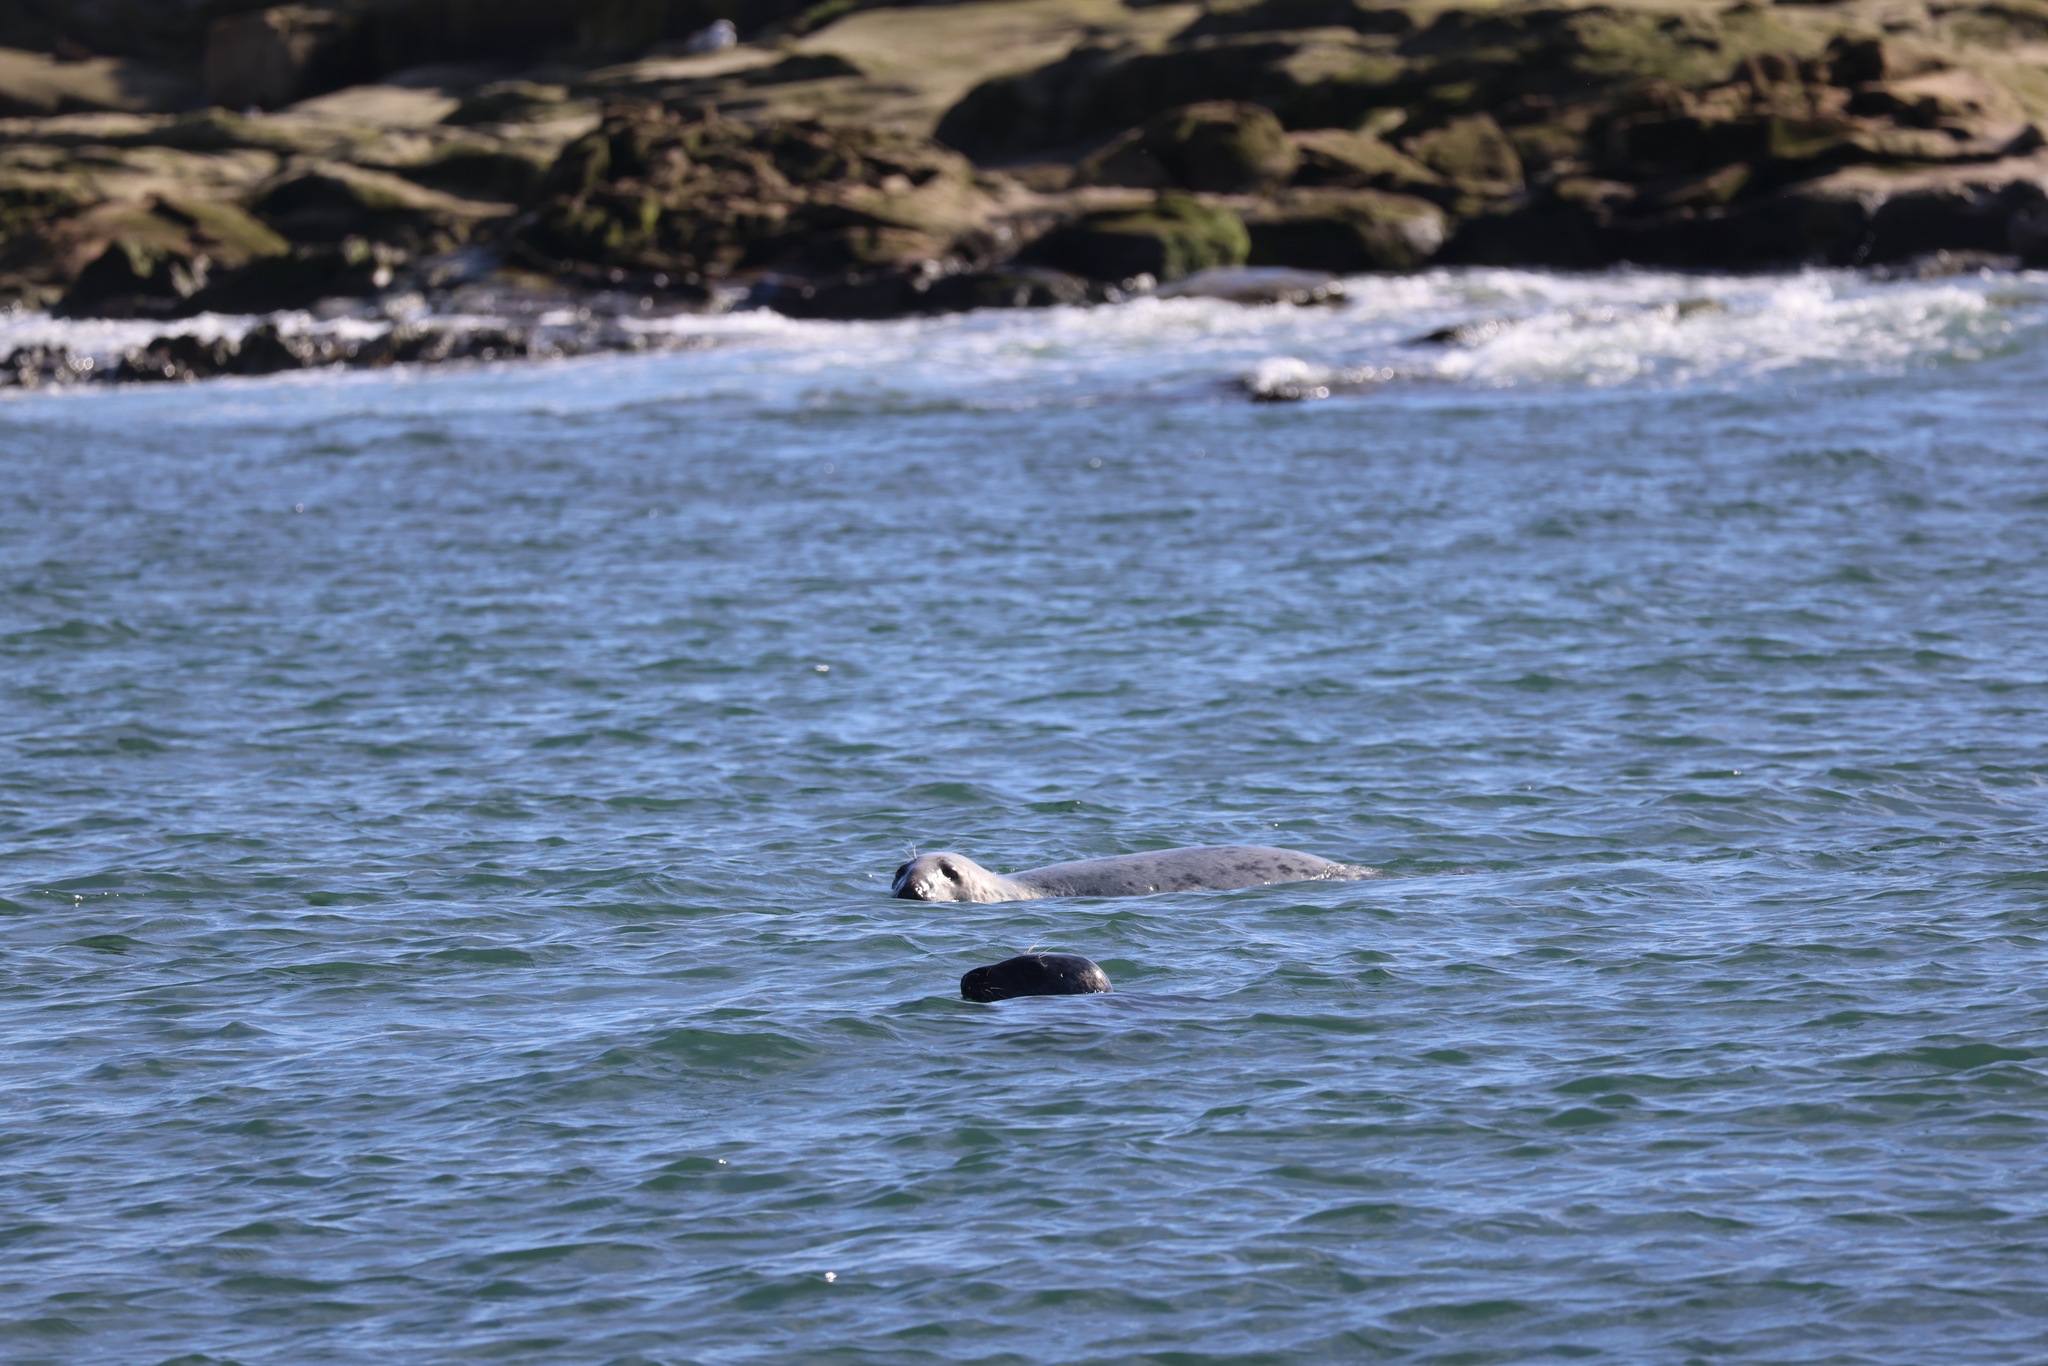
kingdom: Animalia
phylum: Chordata
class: Mammalia
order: Carnivora
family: Phocidae
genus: Halichoerus
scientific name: Halichoerus grypus
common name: Grey seal
